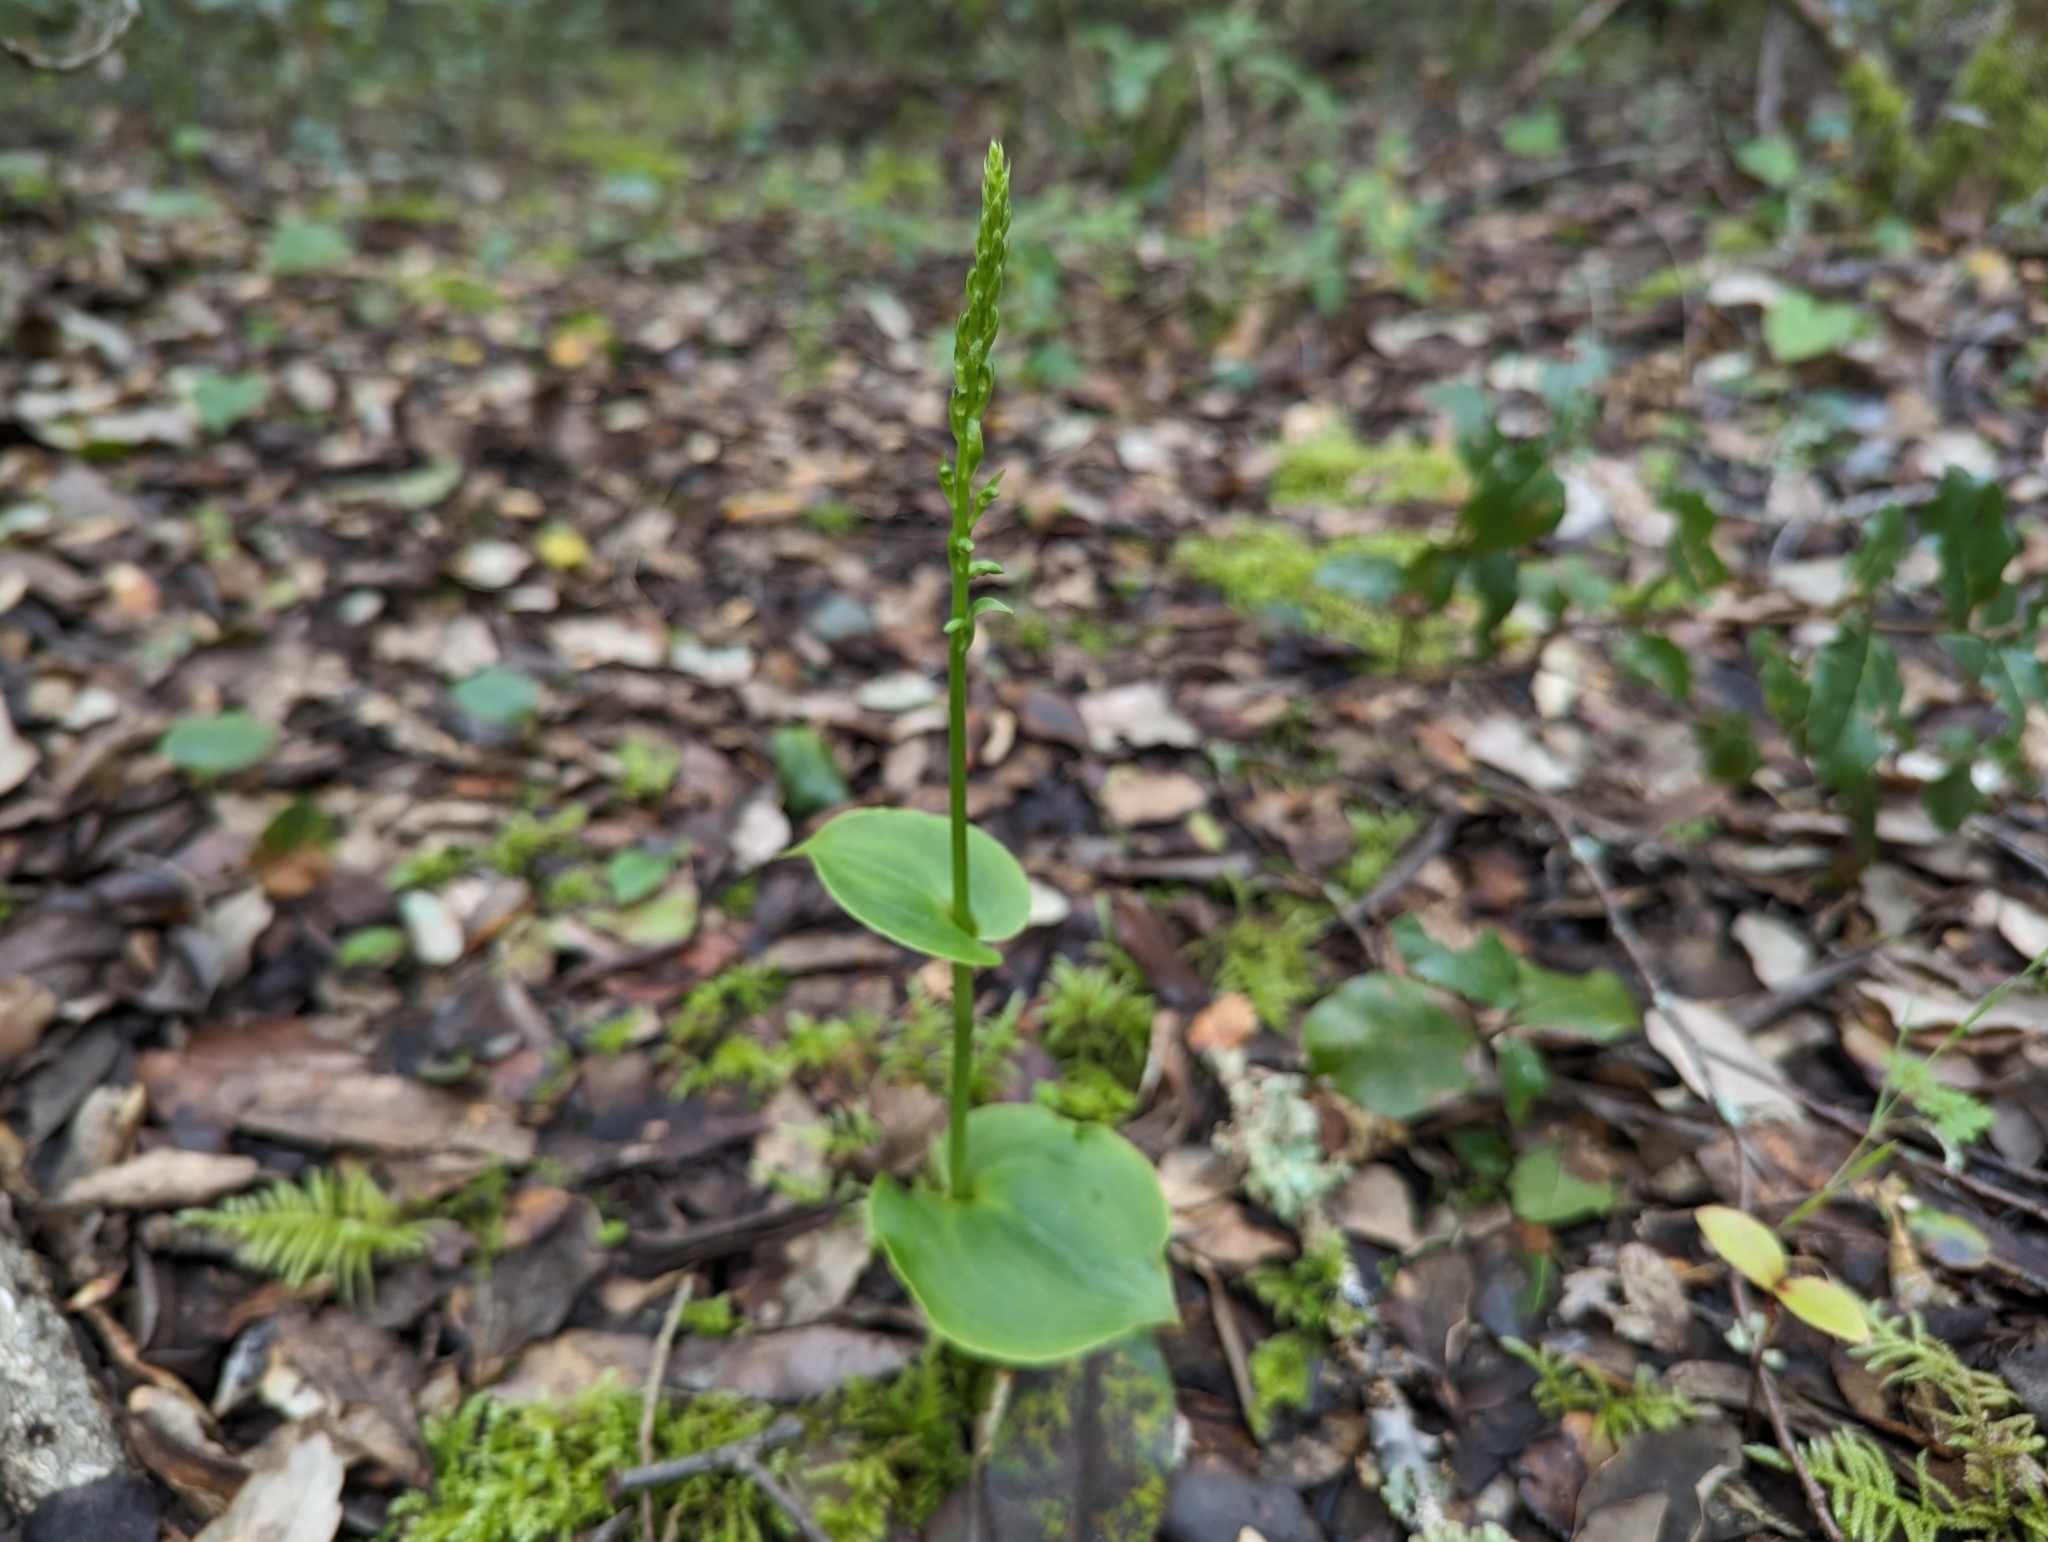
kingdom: Plantae
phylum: Tracheophyta
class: Liliopsida
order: Asparagales
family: Orchidaceae
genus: Gennaria
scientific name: Gennaria diphylla
